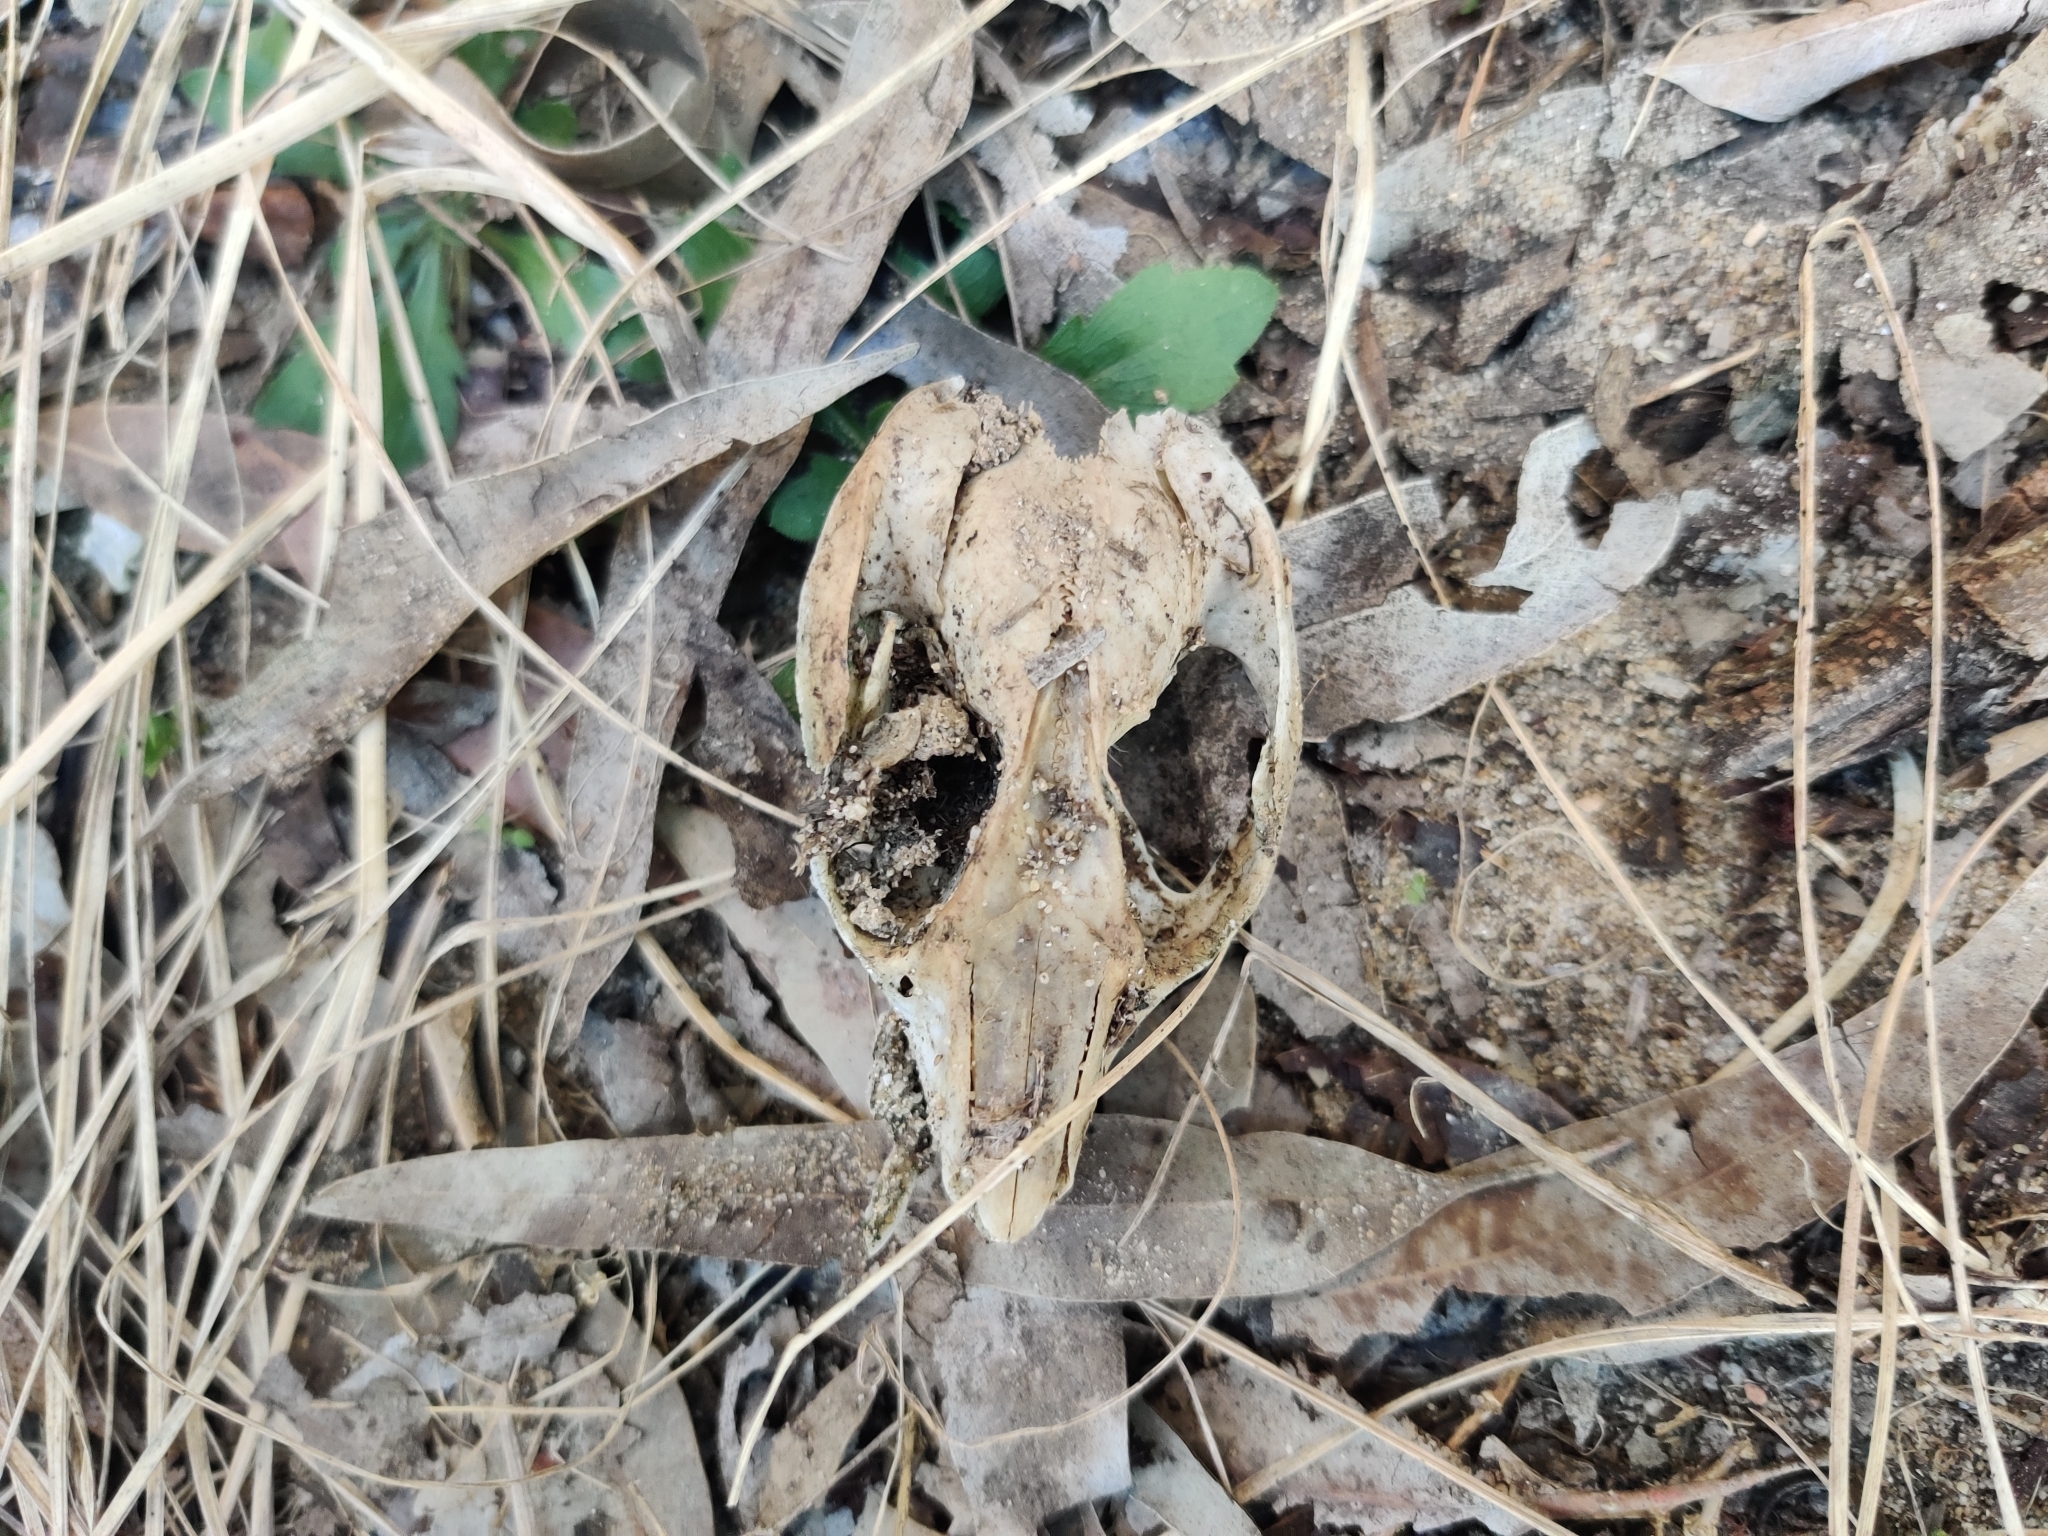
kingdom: Animalia
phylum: Chordata
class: Mammalia
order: Diprotodontia
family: Pseudocheiridae
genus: Pseudocheirus
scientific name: Pseudocheirus peregrinus
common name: Common ringtail possum
